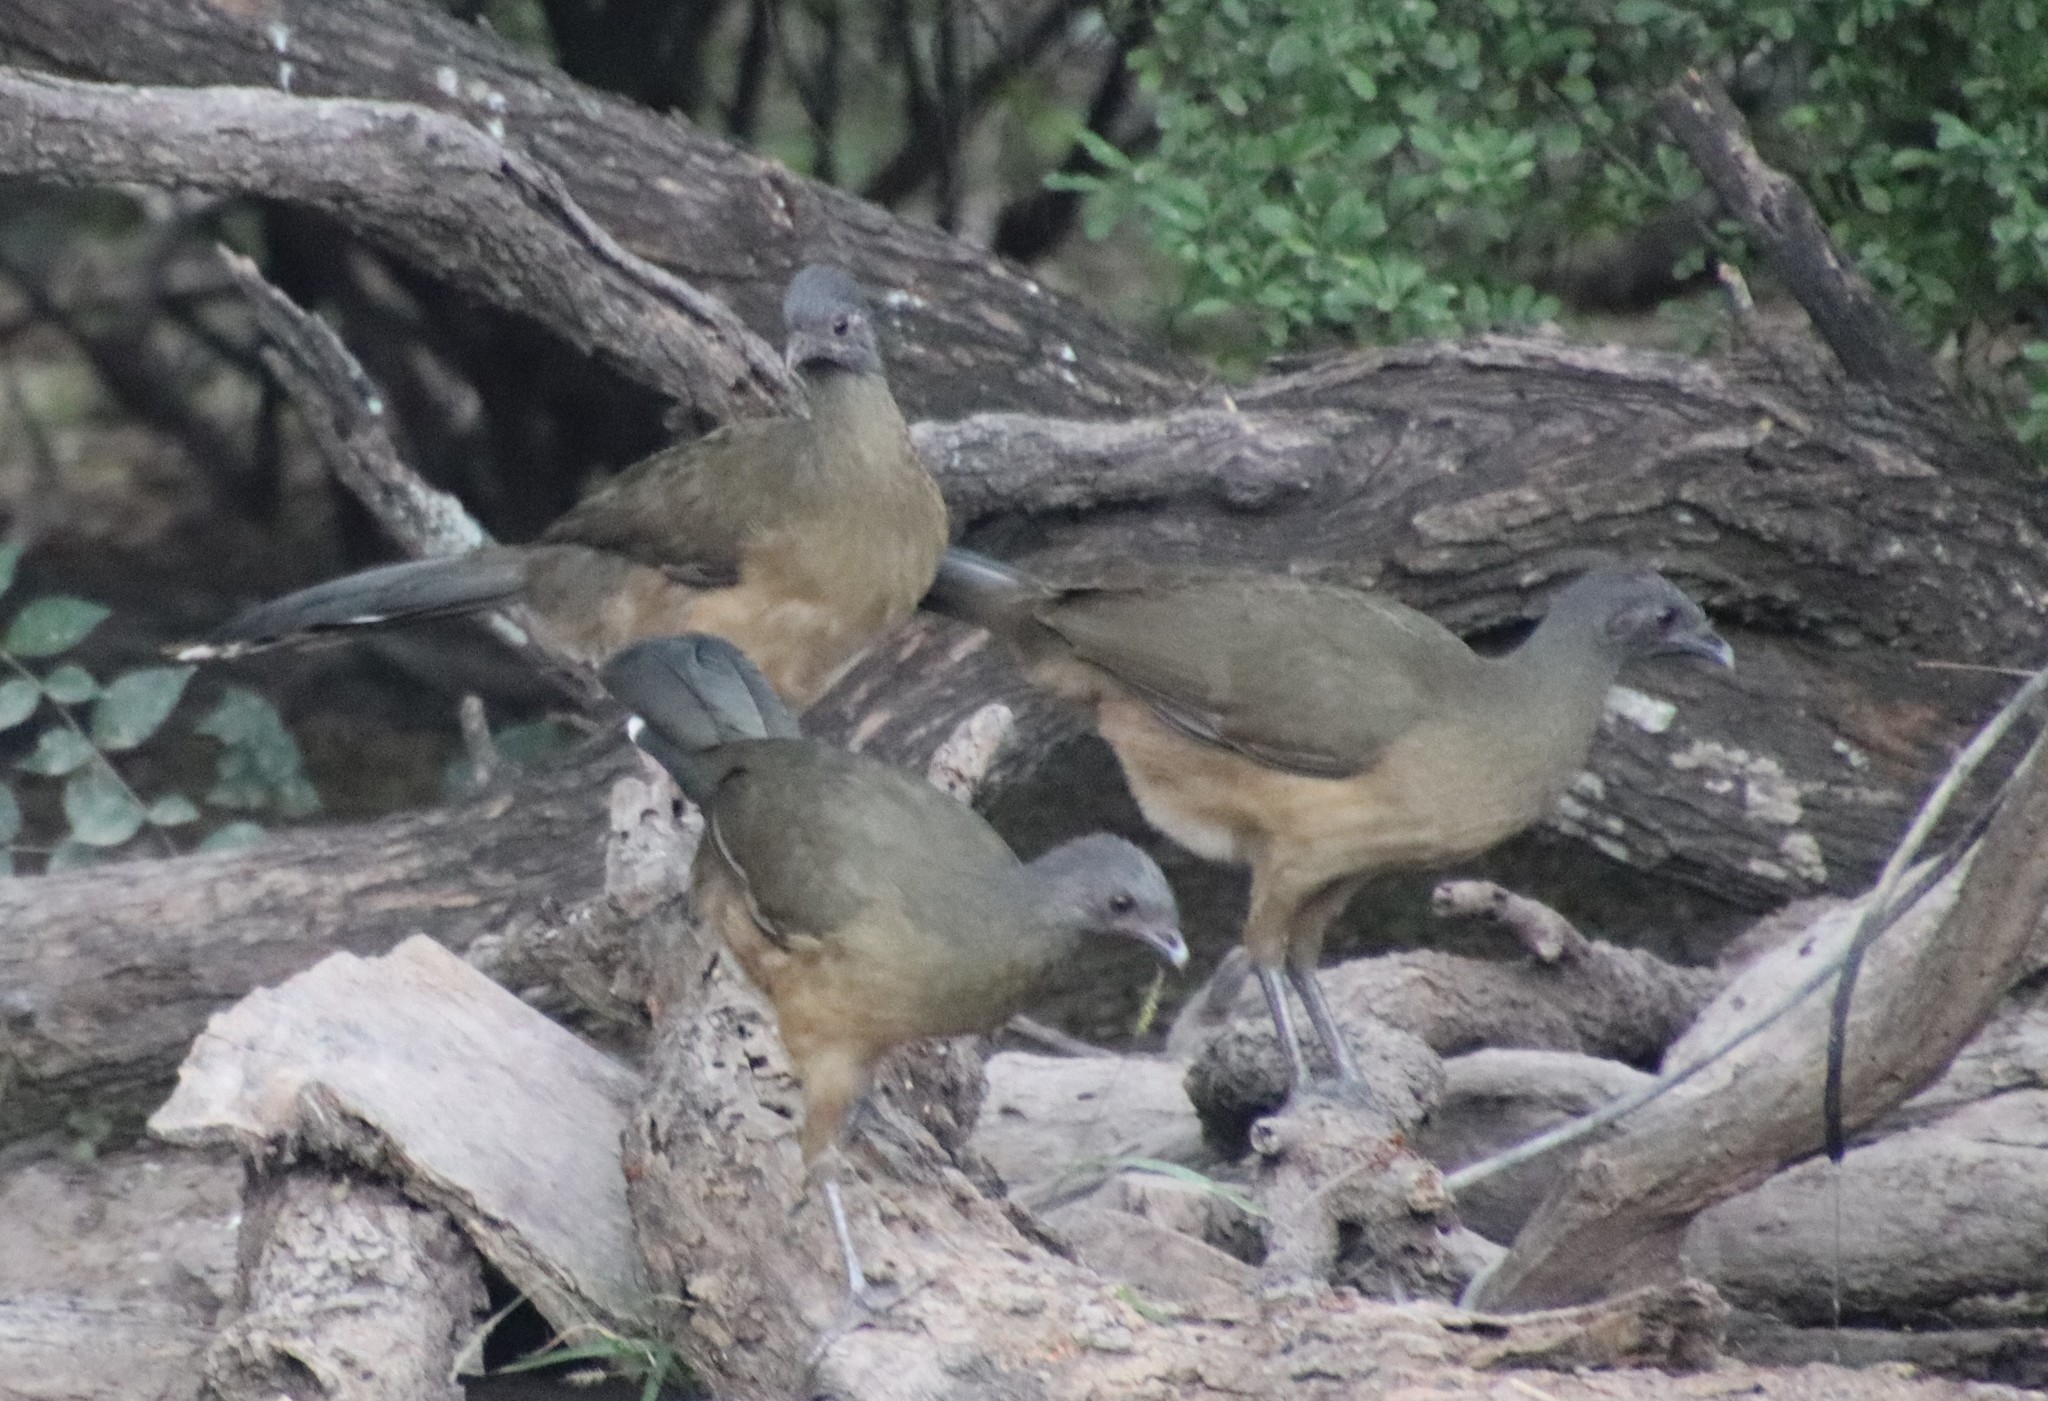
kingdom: Animalia
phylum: Chordata
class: Aves
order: Galliformes
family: Cracidae
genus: Ortalis
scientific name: Ortalis vetula
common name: Plain chachalaca
